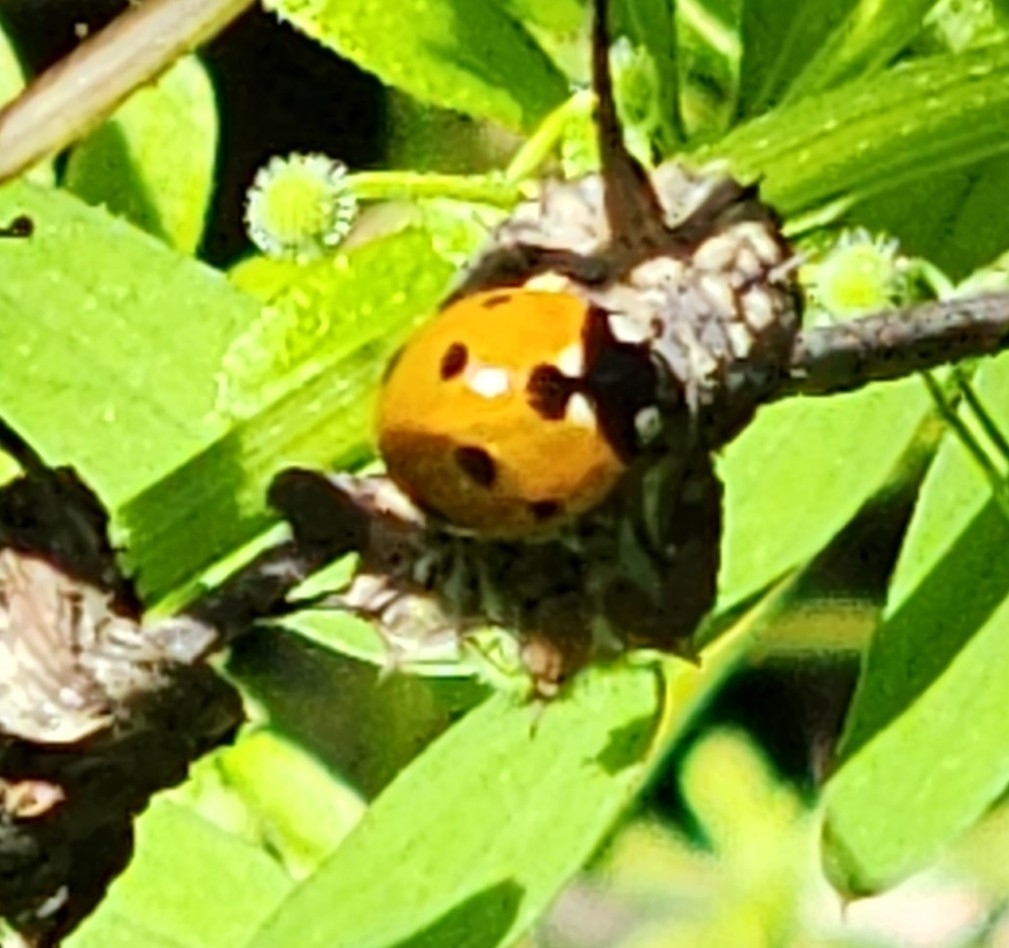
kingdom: Animalia
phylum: Arthropoda
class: Insecta
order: Coleoptera
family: Coccinellidae
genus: Coccinella
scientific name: Coccinella septempunctata
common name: Sevenspotted lady beetle
